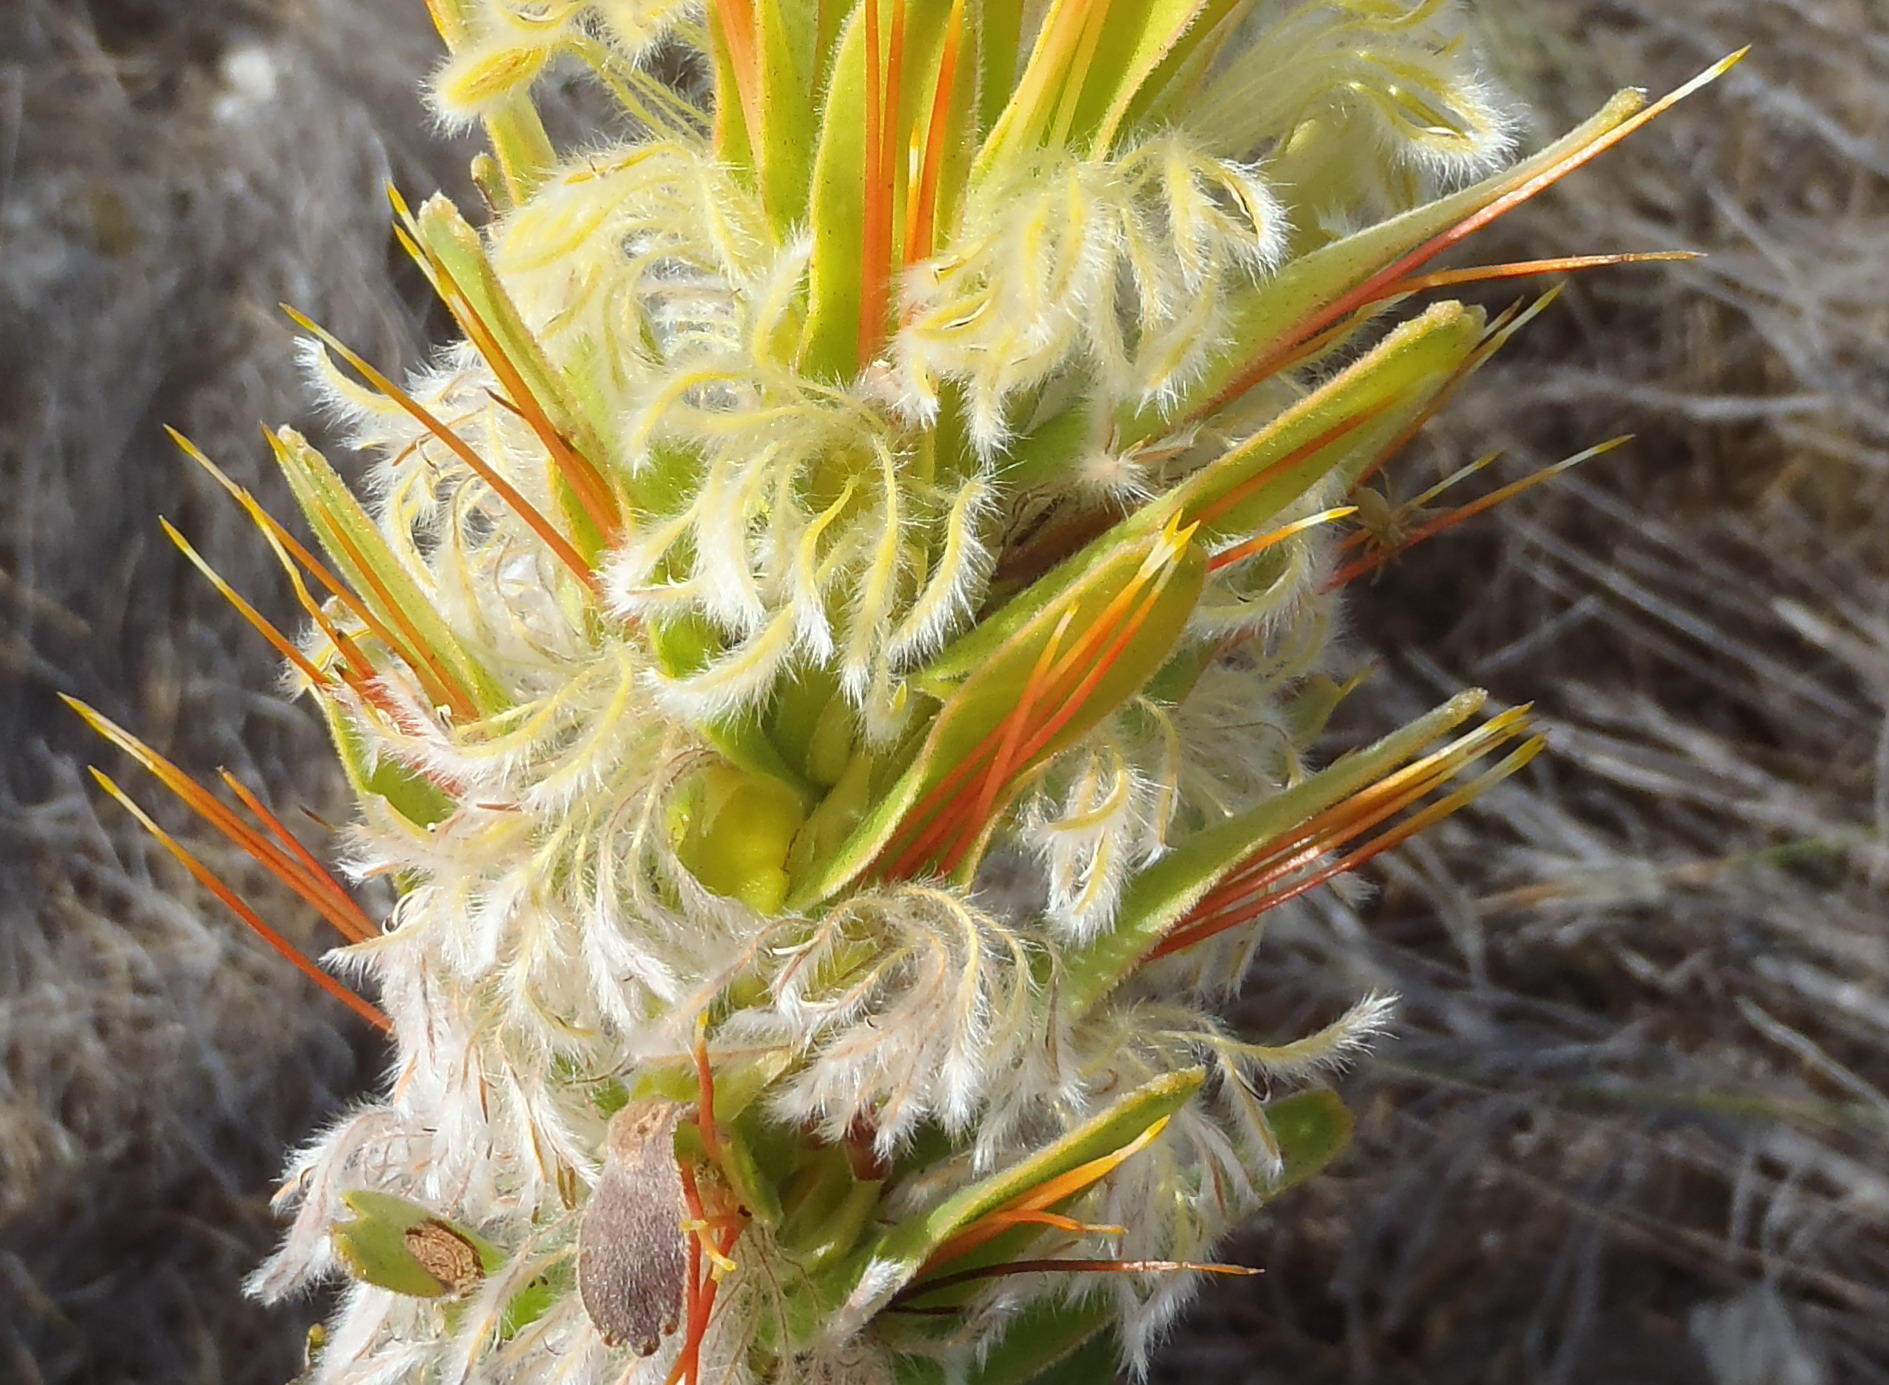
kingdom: Plantae
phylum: Tracheophyta
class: Magnoliopsida
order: Proteales
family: Proteaceae
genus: Mimetes
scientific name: Mimetes cucullatus
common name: Common pagoda
